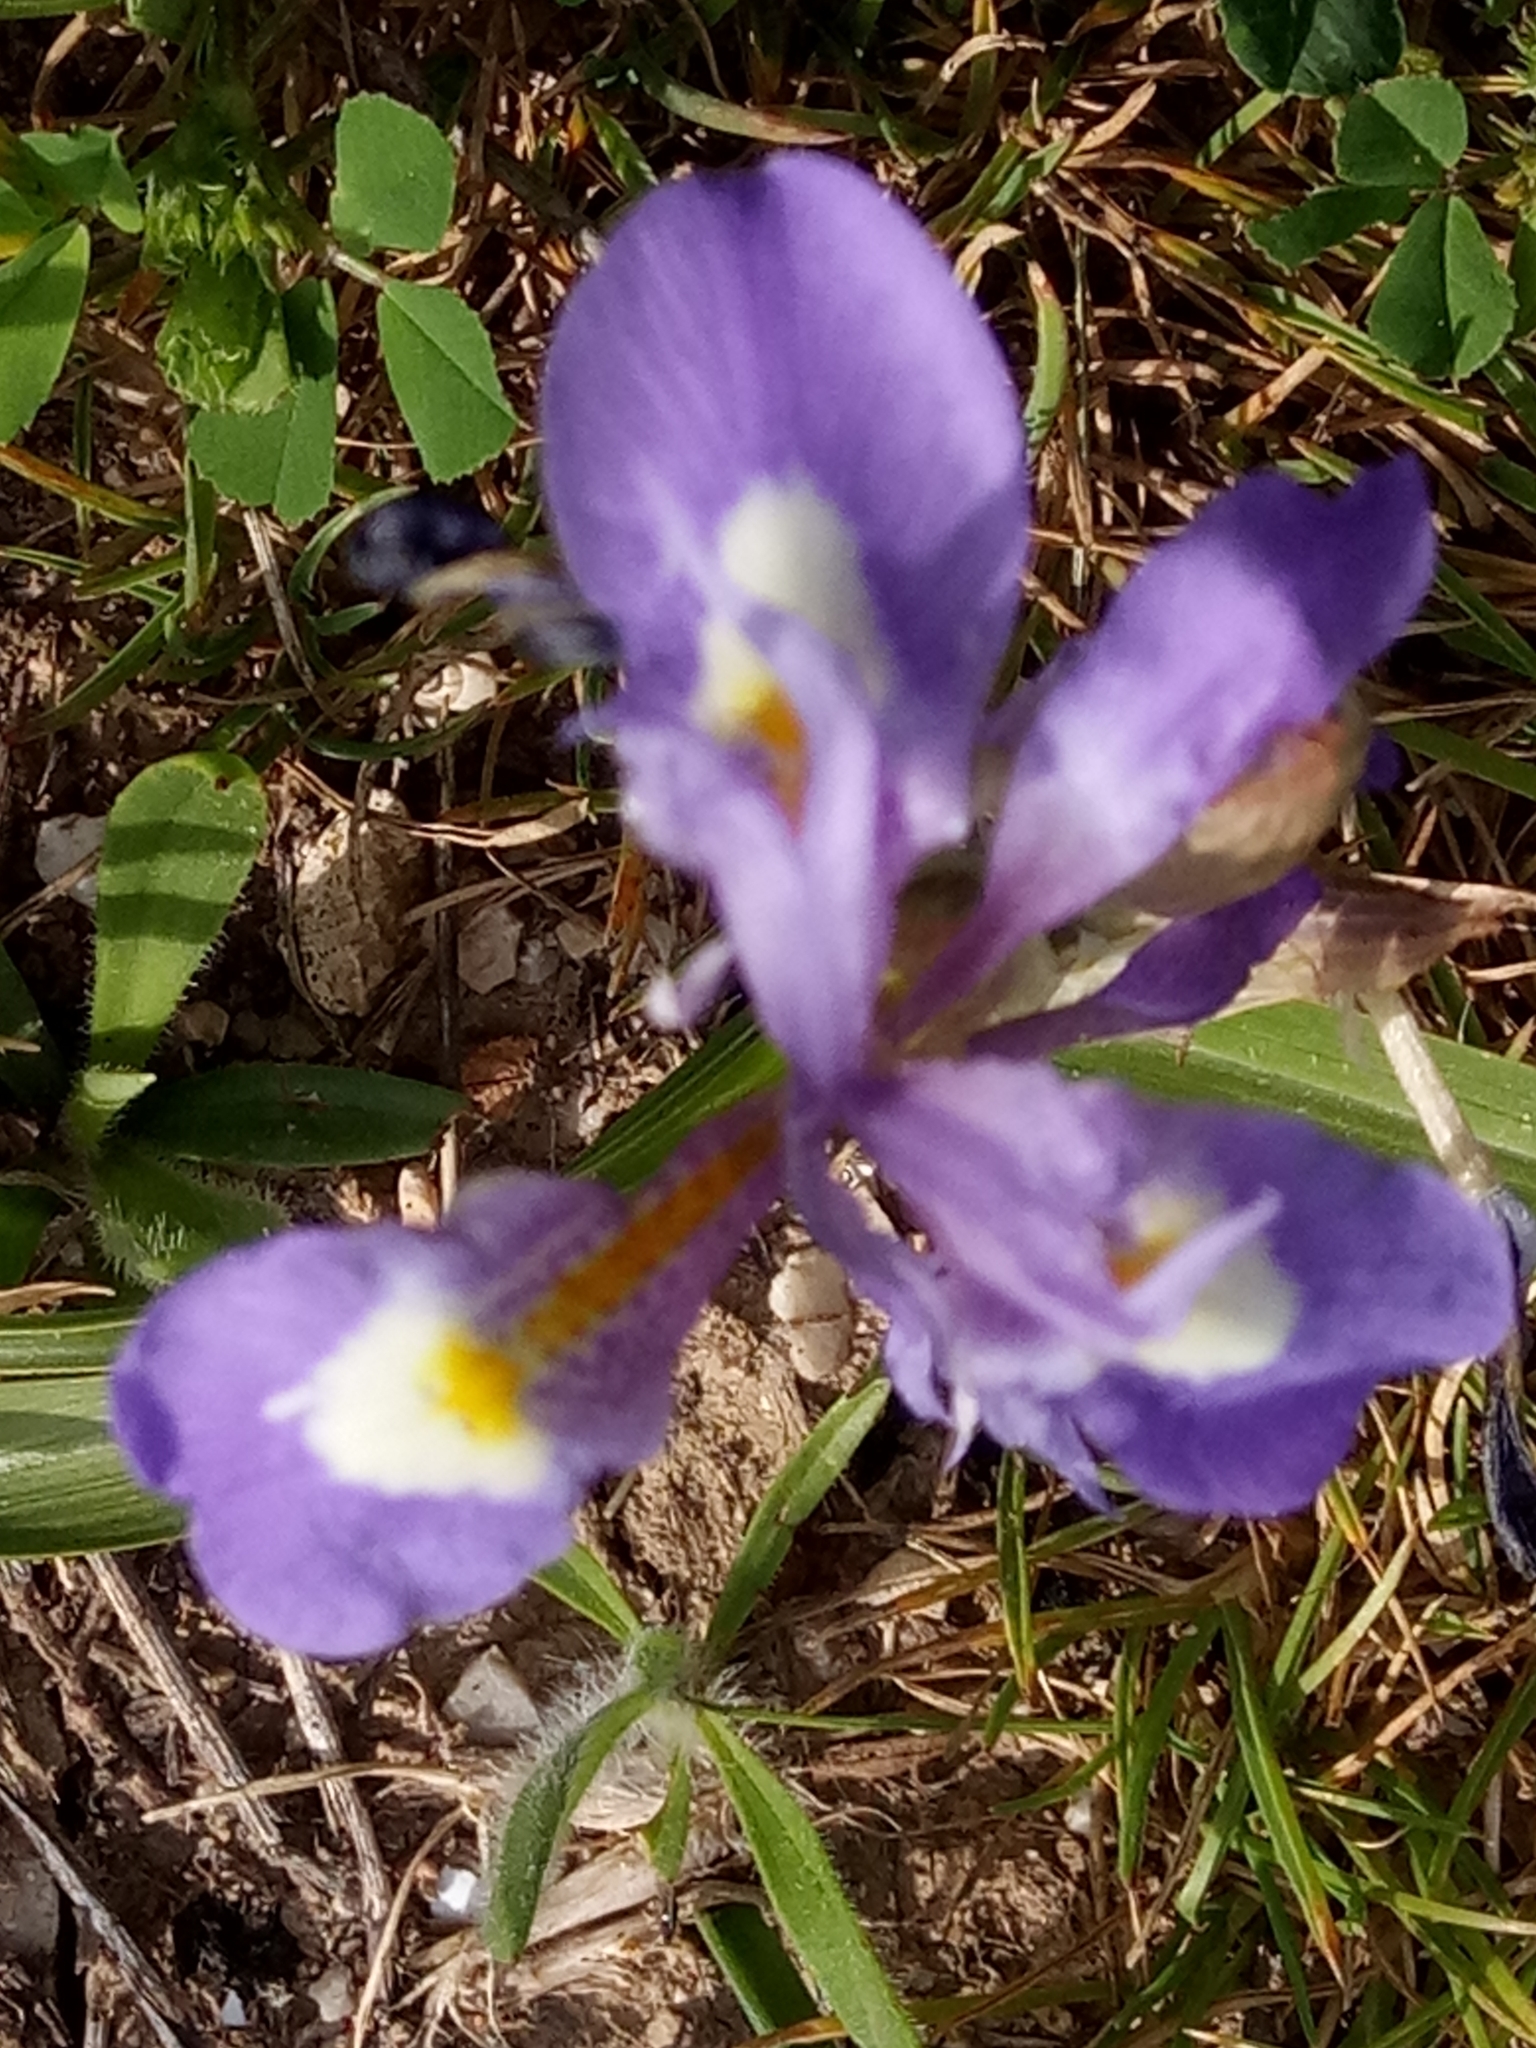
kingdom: Plantae
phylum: Tracheophyta
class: Liliopsida
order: Asparagales
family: Iridaceae
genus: Moraea
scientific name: Moraea sisyrinchium
